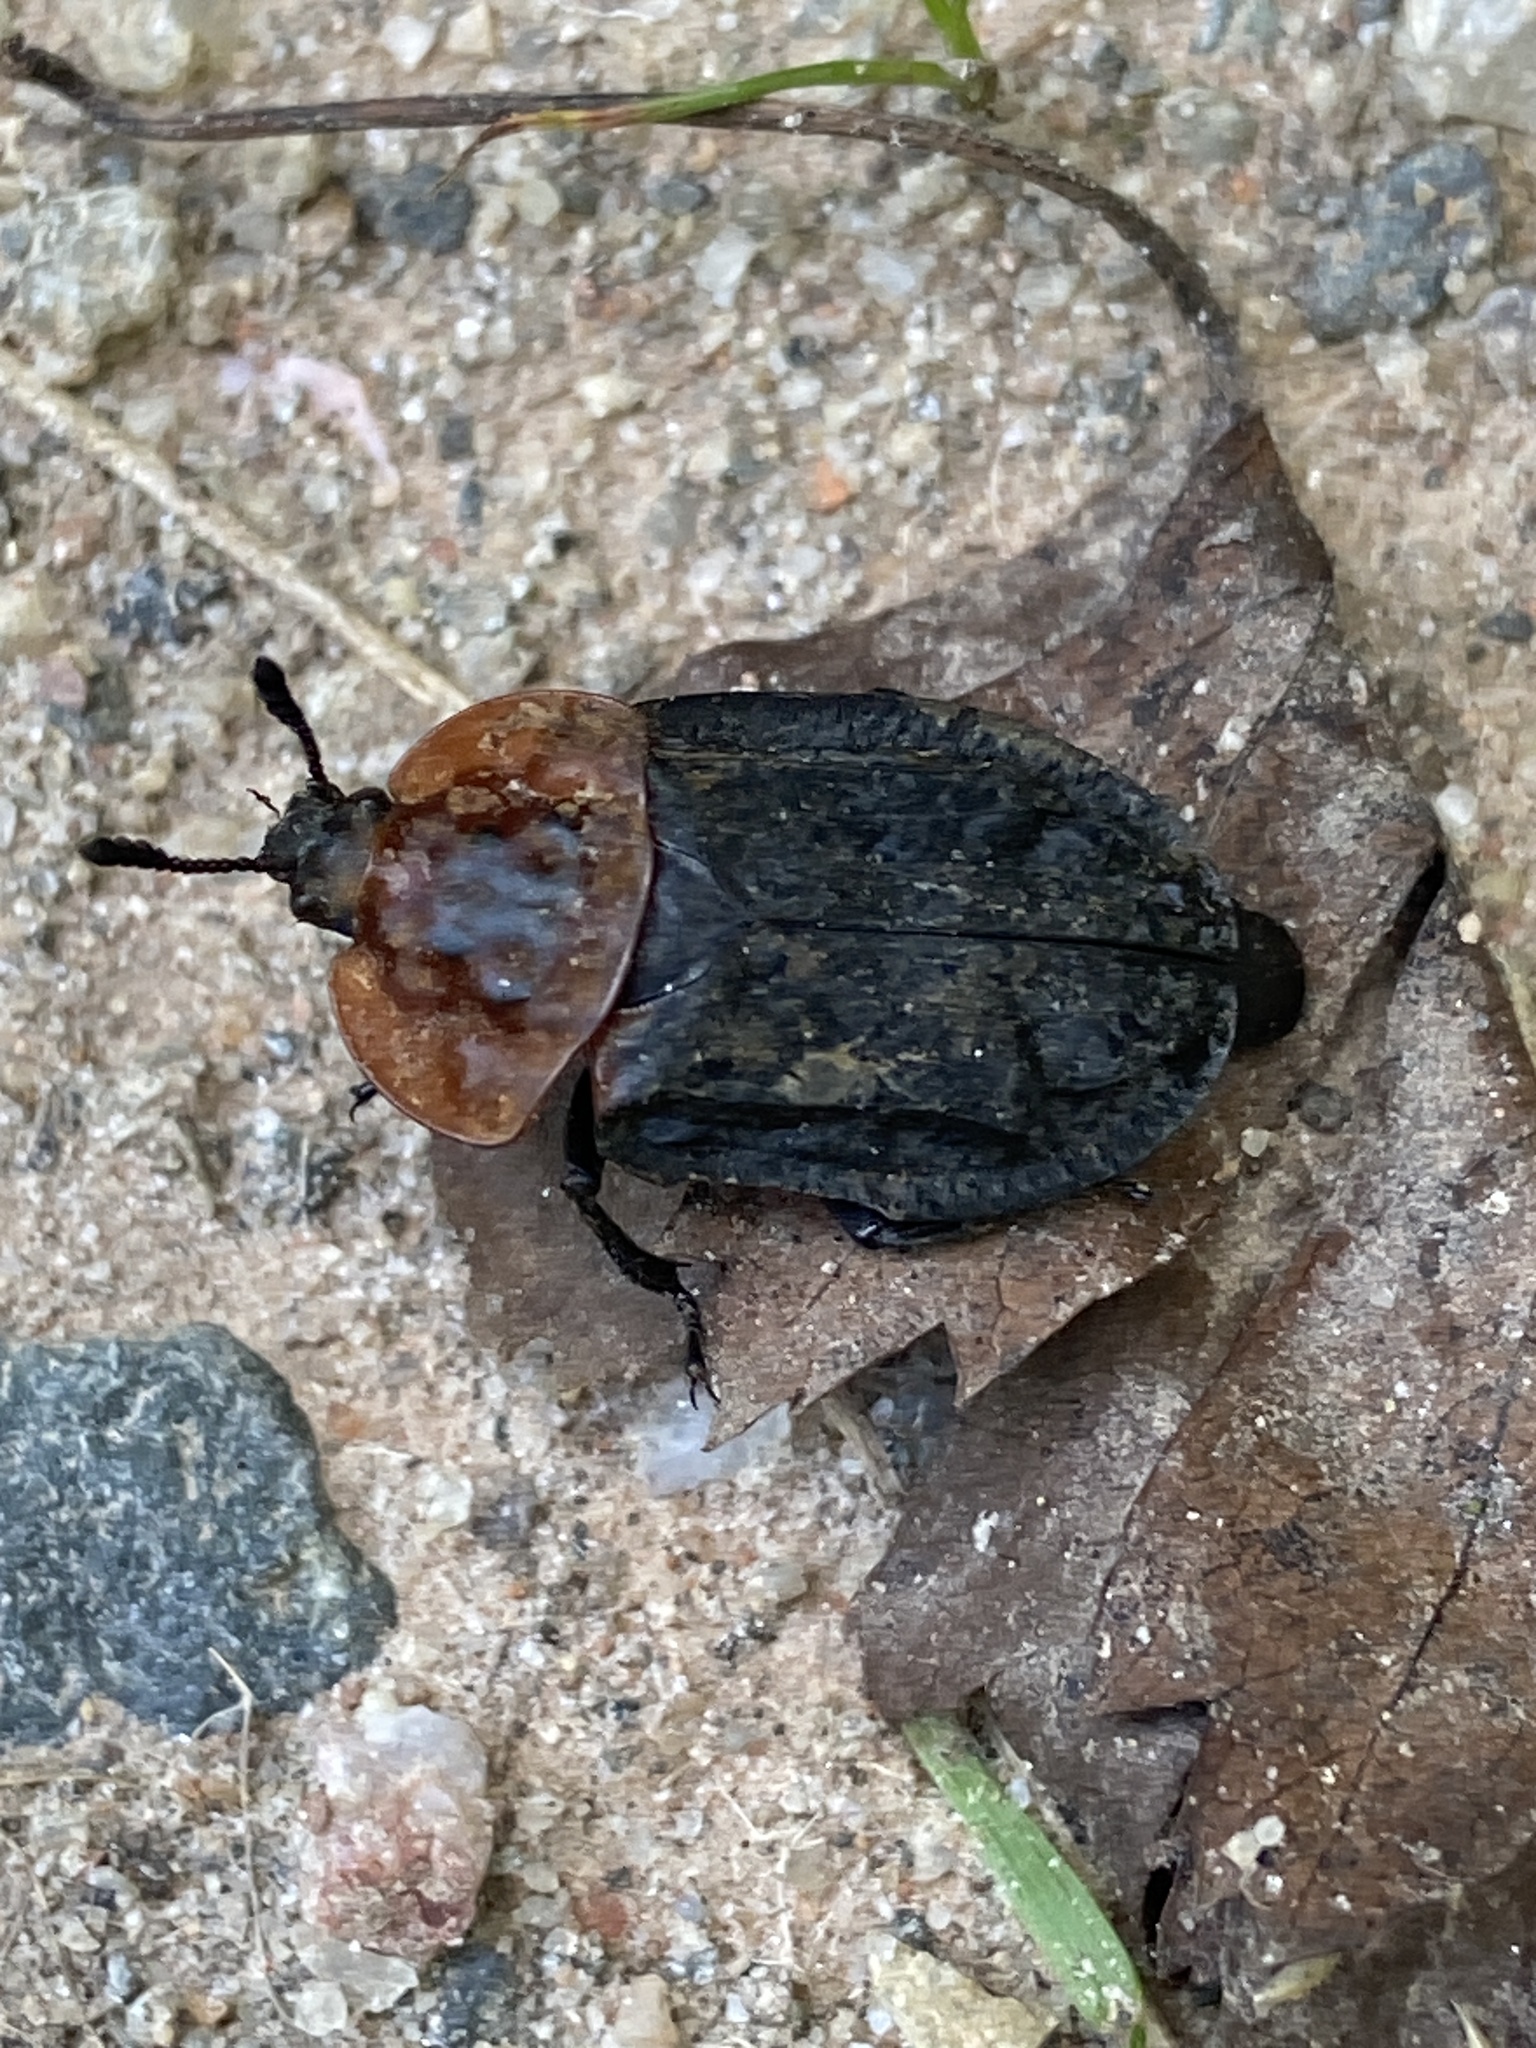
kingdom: Animalia
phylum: Arthropoda
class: Insecta
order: Coleoptera
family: Staphylinidae
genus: Oiceoptoma
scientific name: Oiceoptoma thoracicum
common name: Red-breasted carrion beetle
